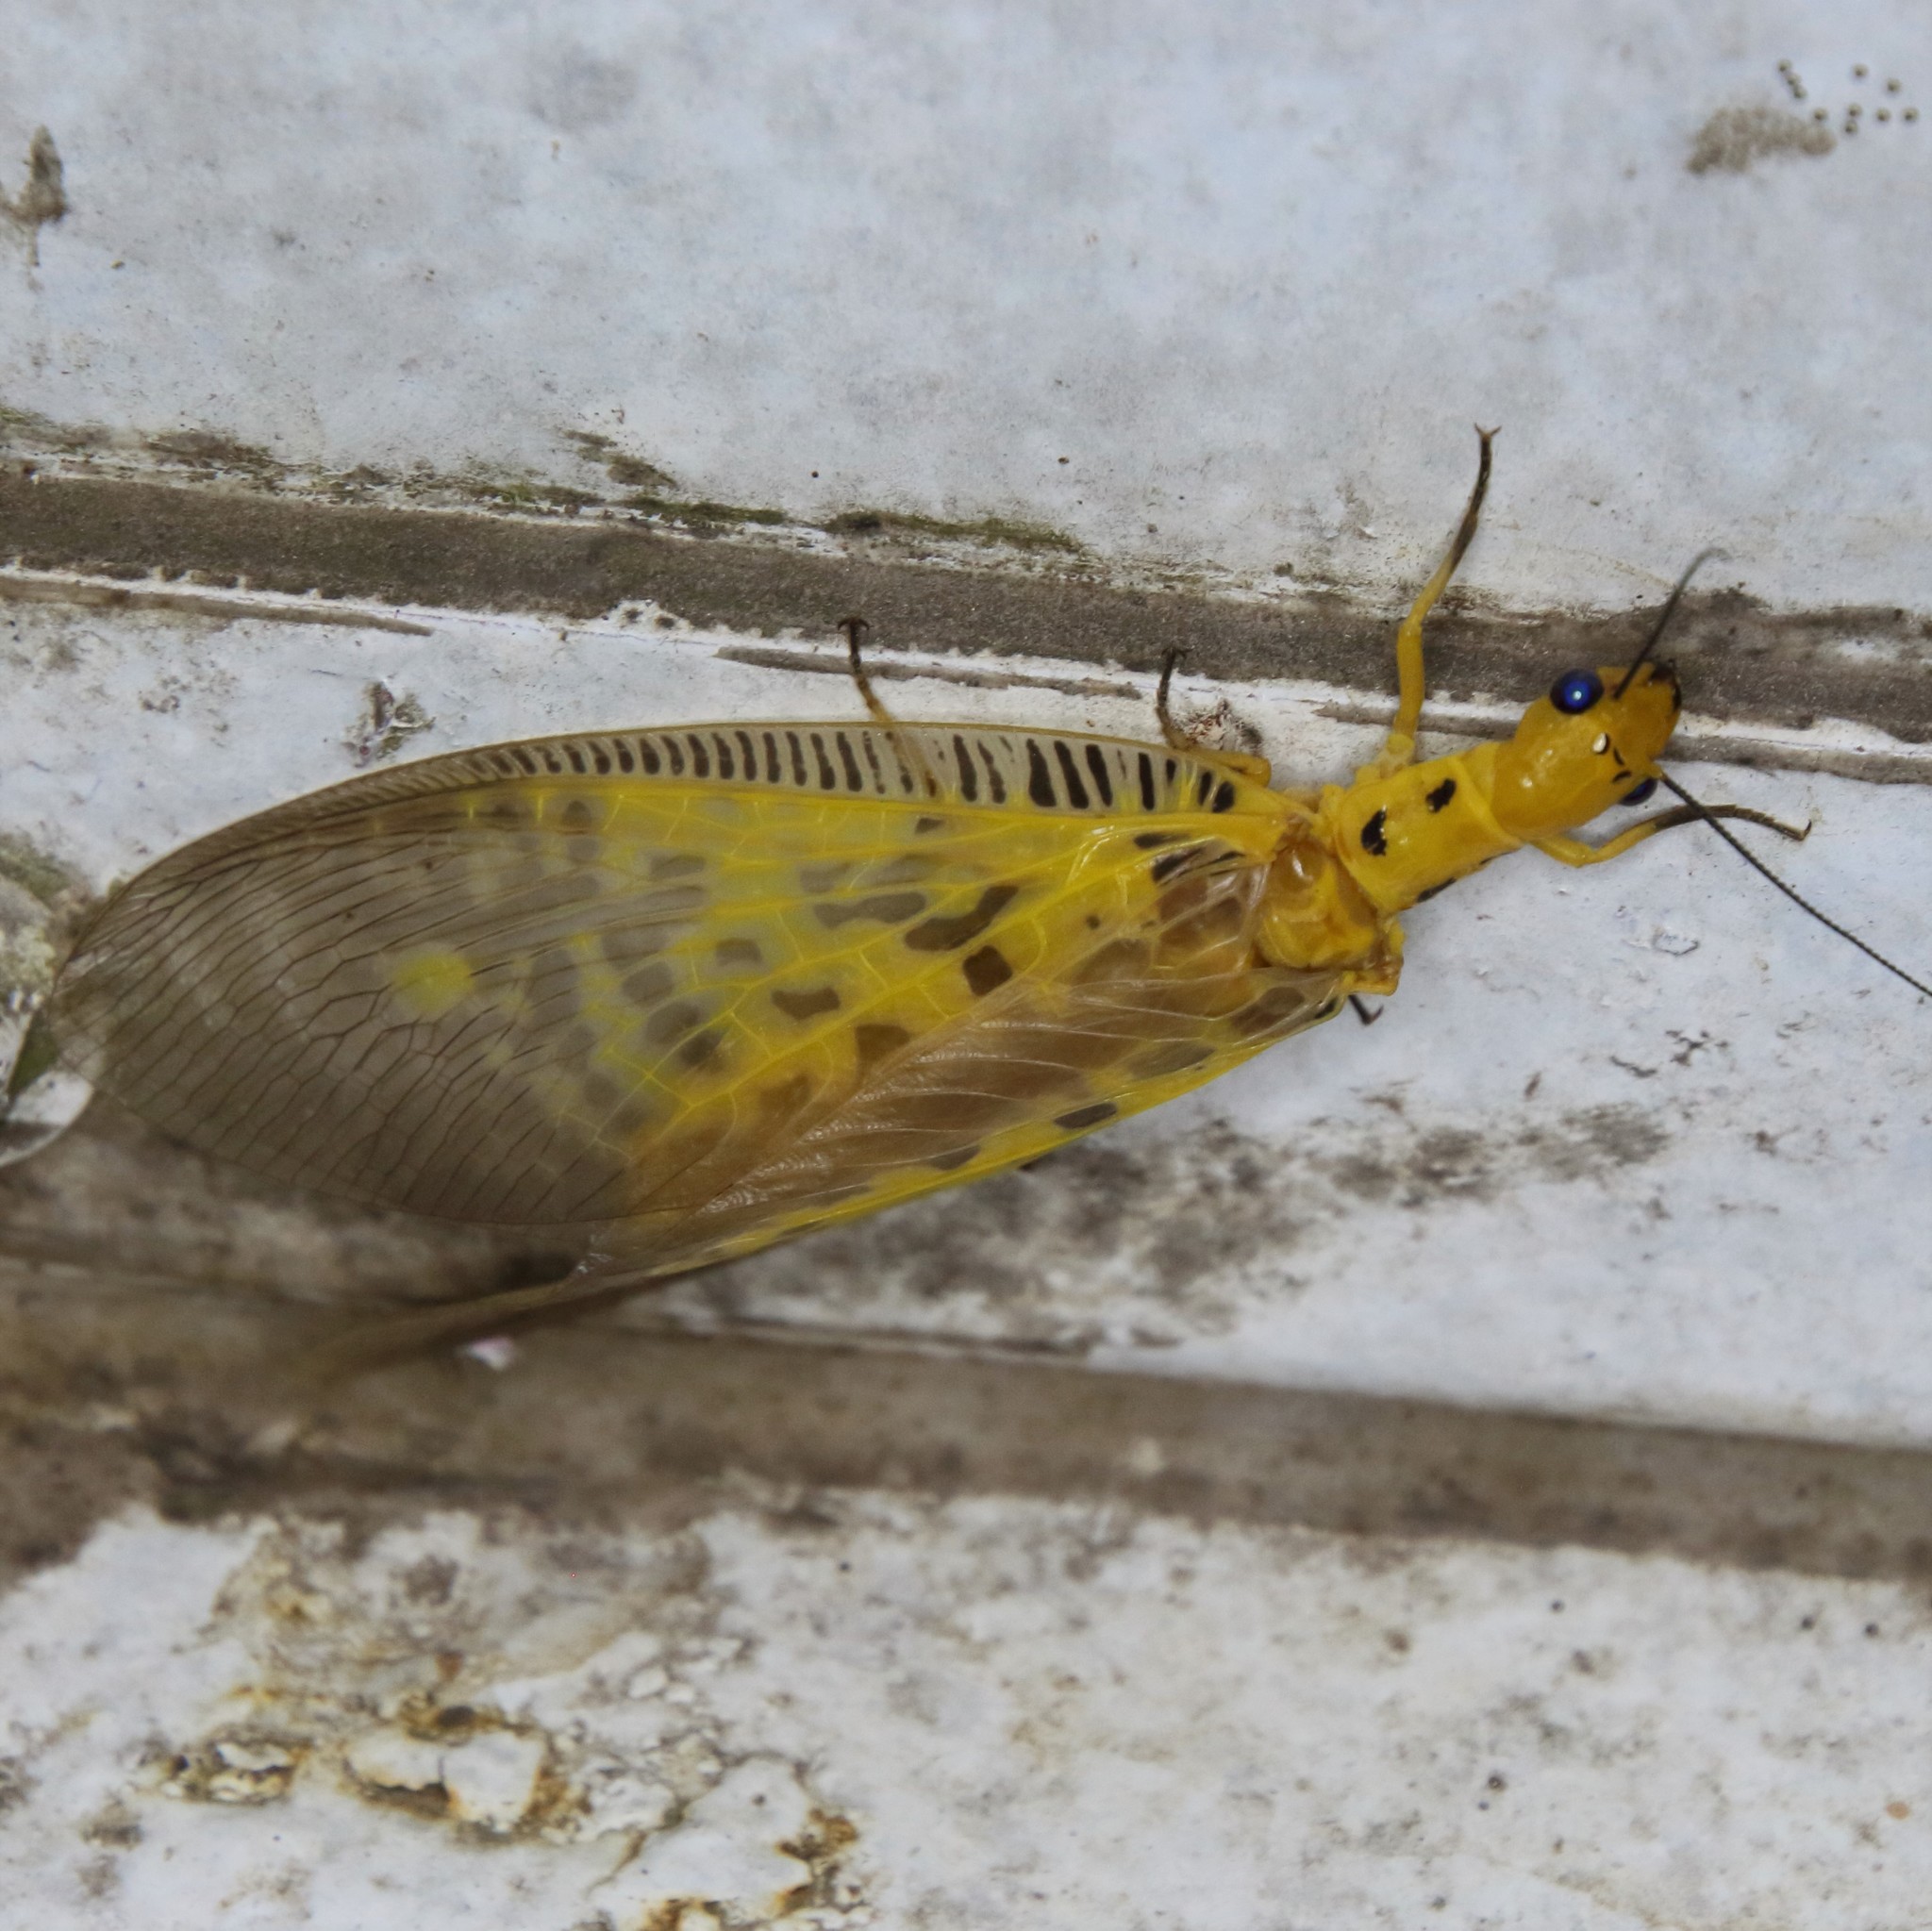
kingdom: Animalia
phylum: Arthropoda
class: Insecta
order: Megaloptera
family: Corydalidae
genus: Protohermes
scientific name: Protohermes lii
